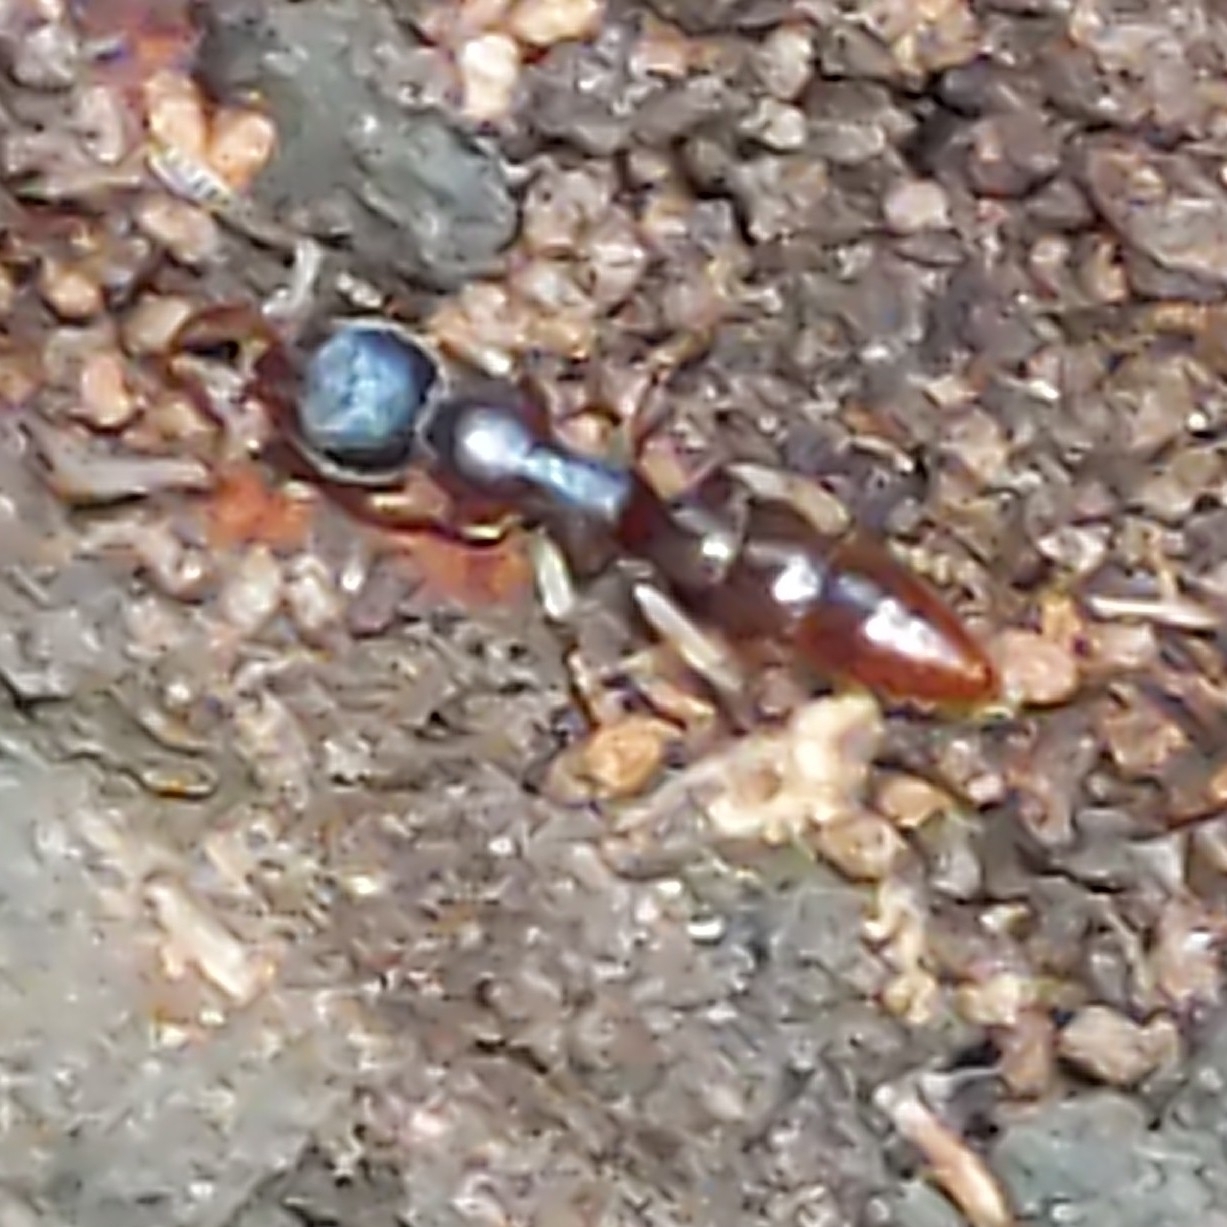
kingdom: Animalia
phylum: Arthropoda
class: Insecta
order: Hymenoptera
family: Formicidae
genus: Stigmatomma
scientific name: Stigmatomma pallipes
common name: Vampire ant
